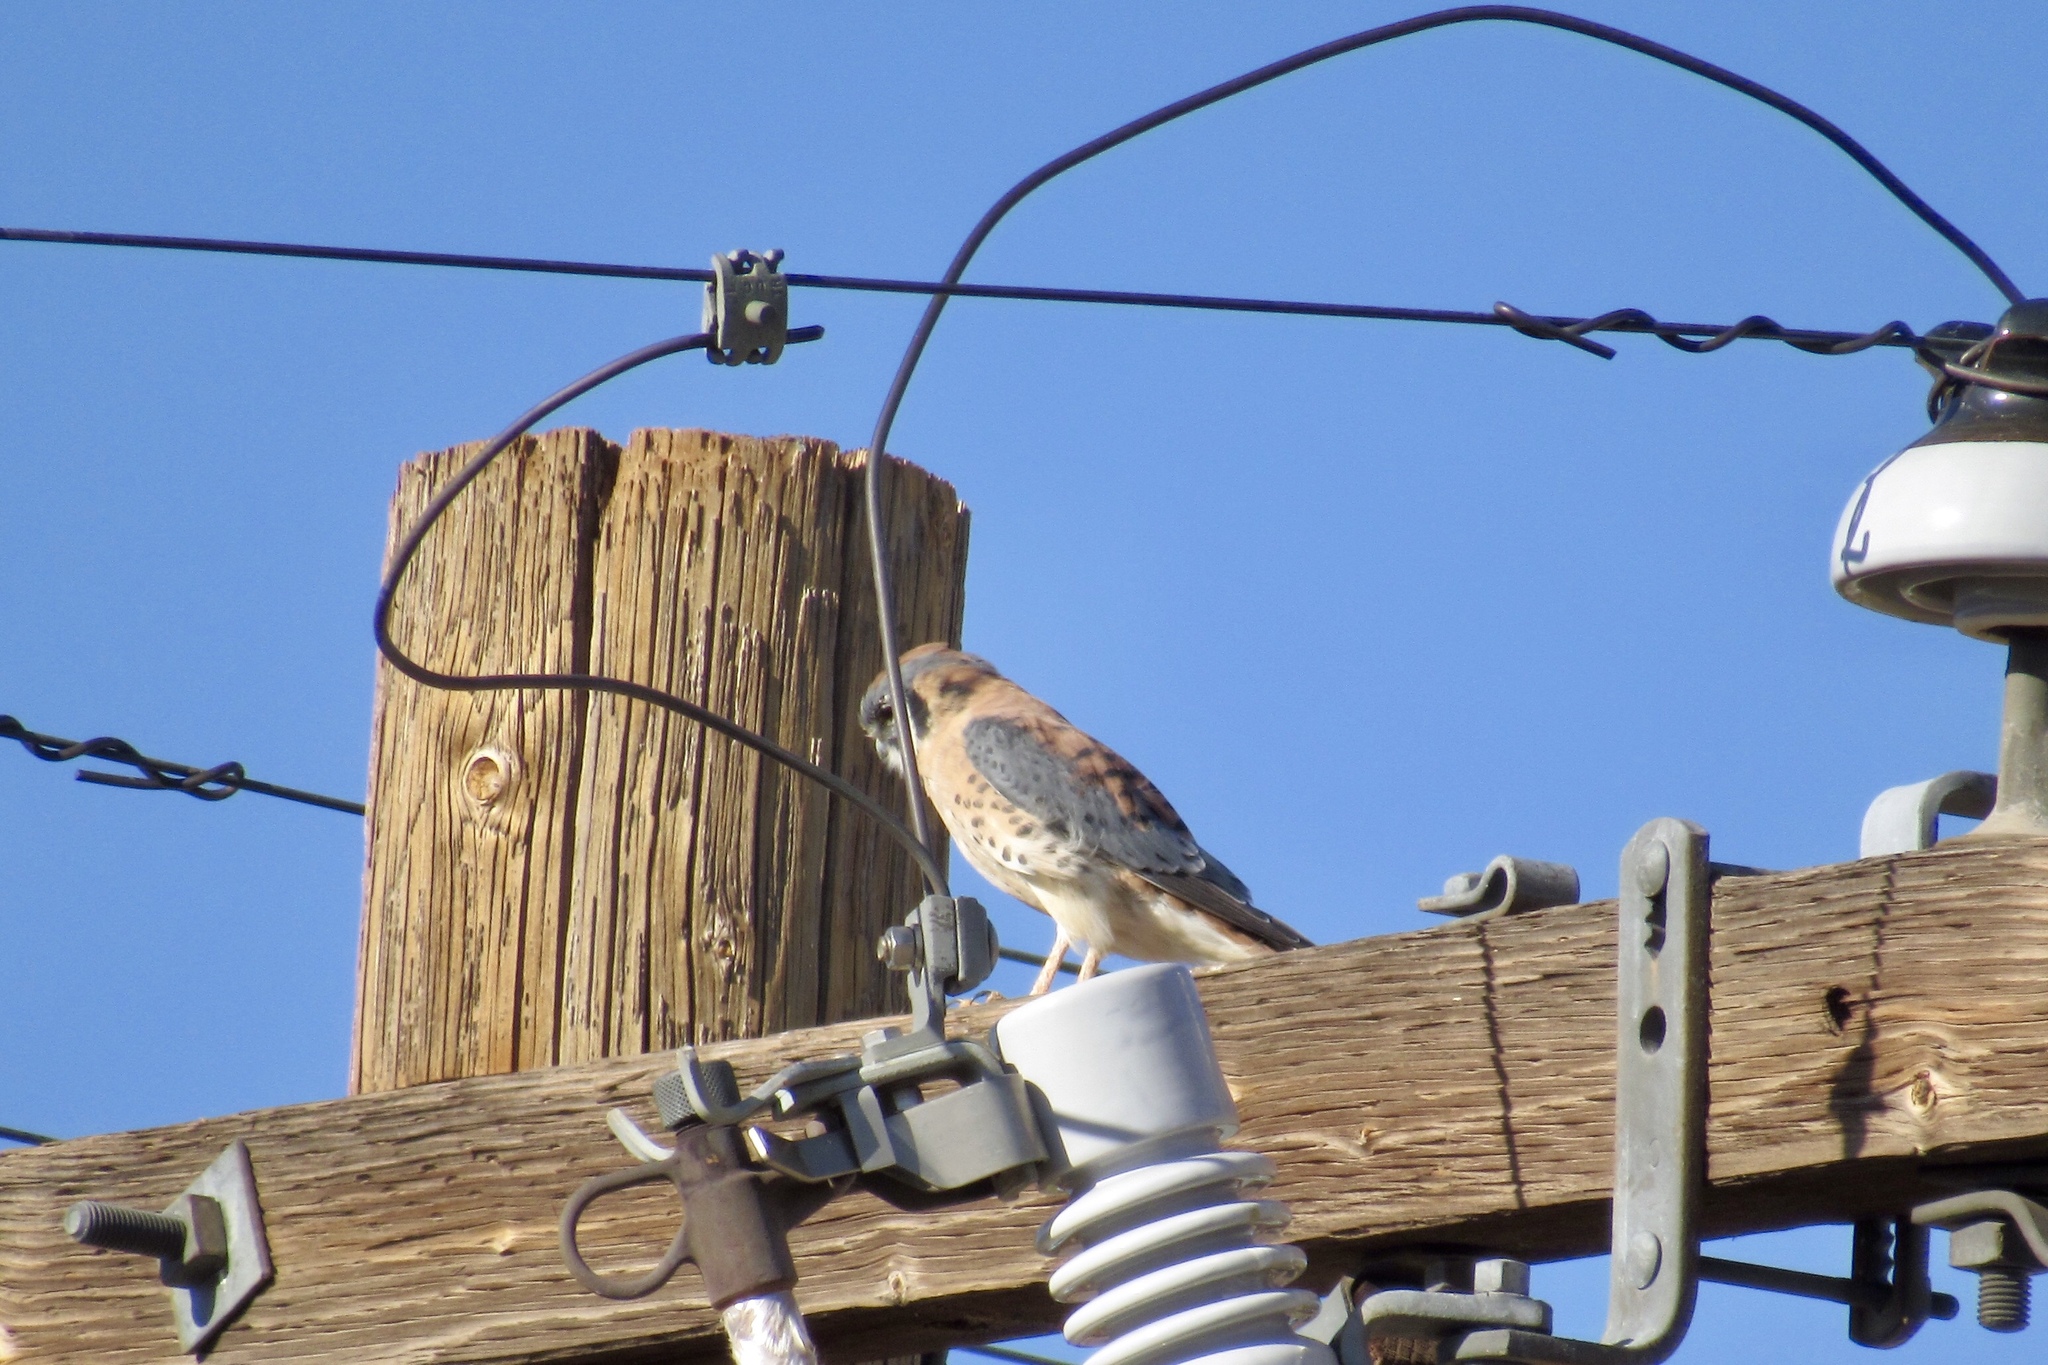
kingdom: Animalia
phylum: Chordata
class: Aves
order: Falconiformes
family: Falconidae
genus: Falco
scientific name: Falco sparverius
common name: American kestrel
